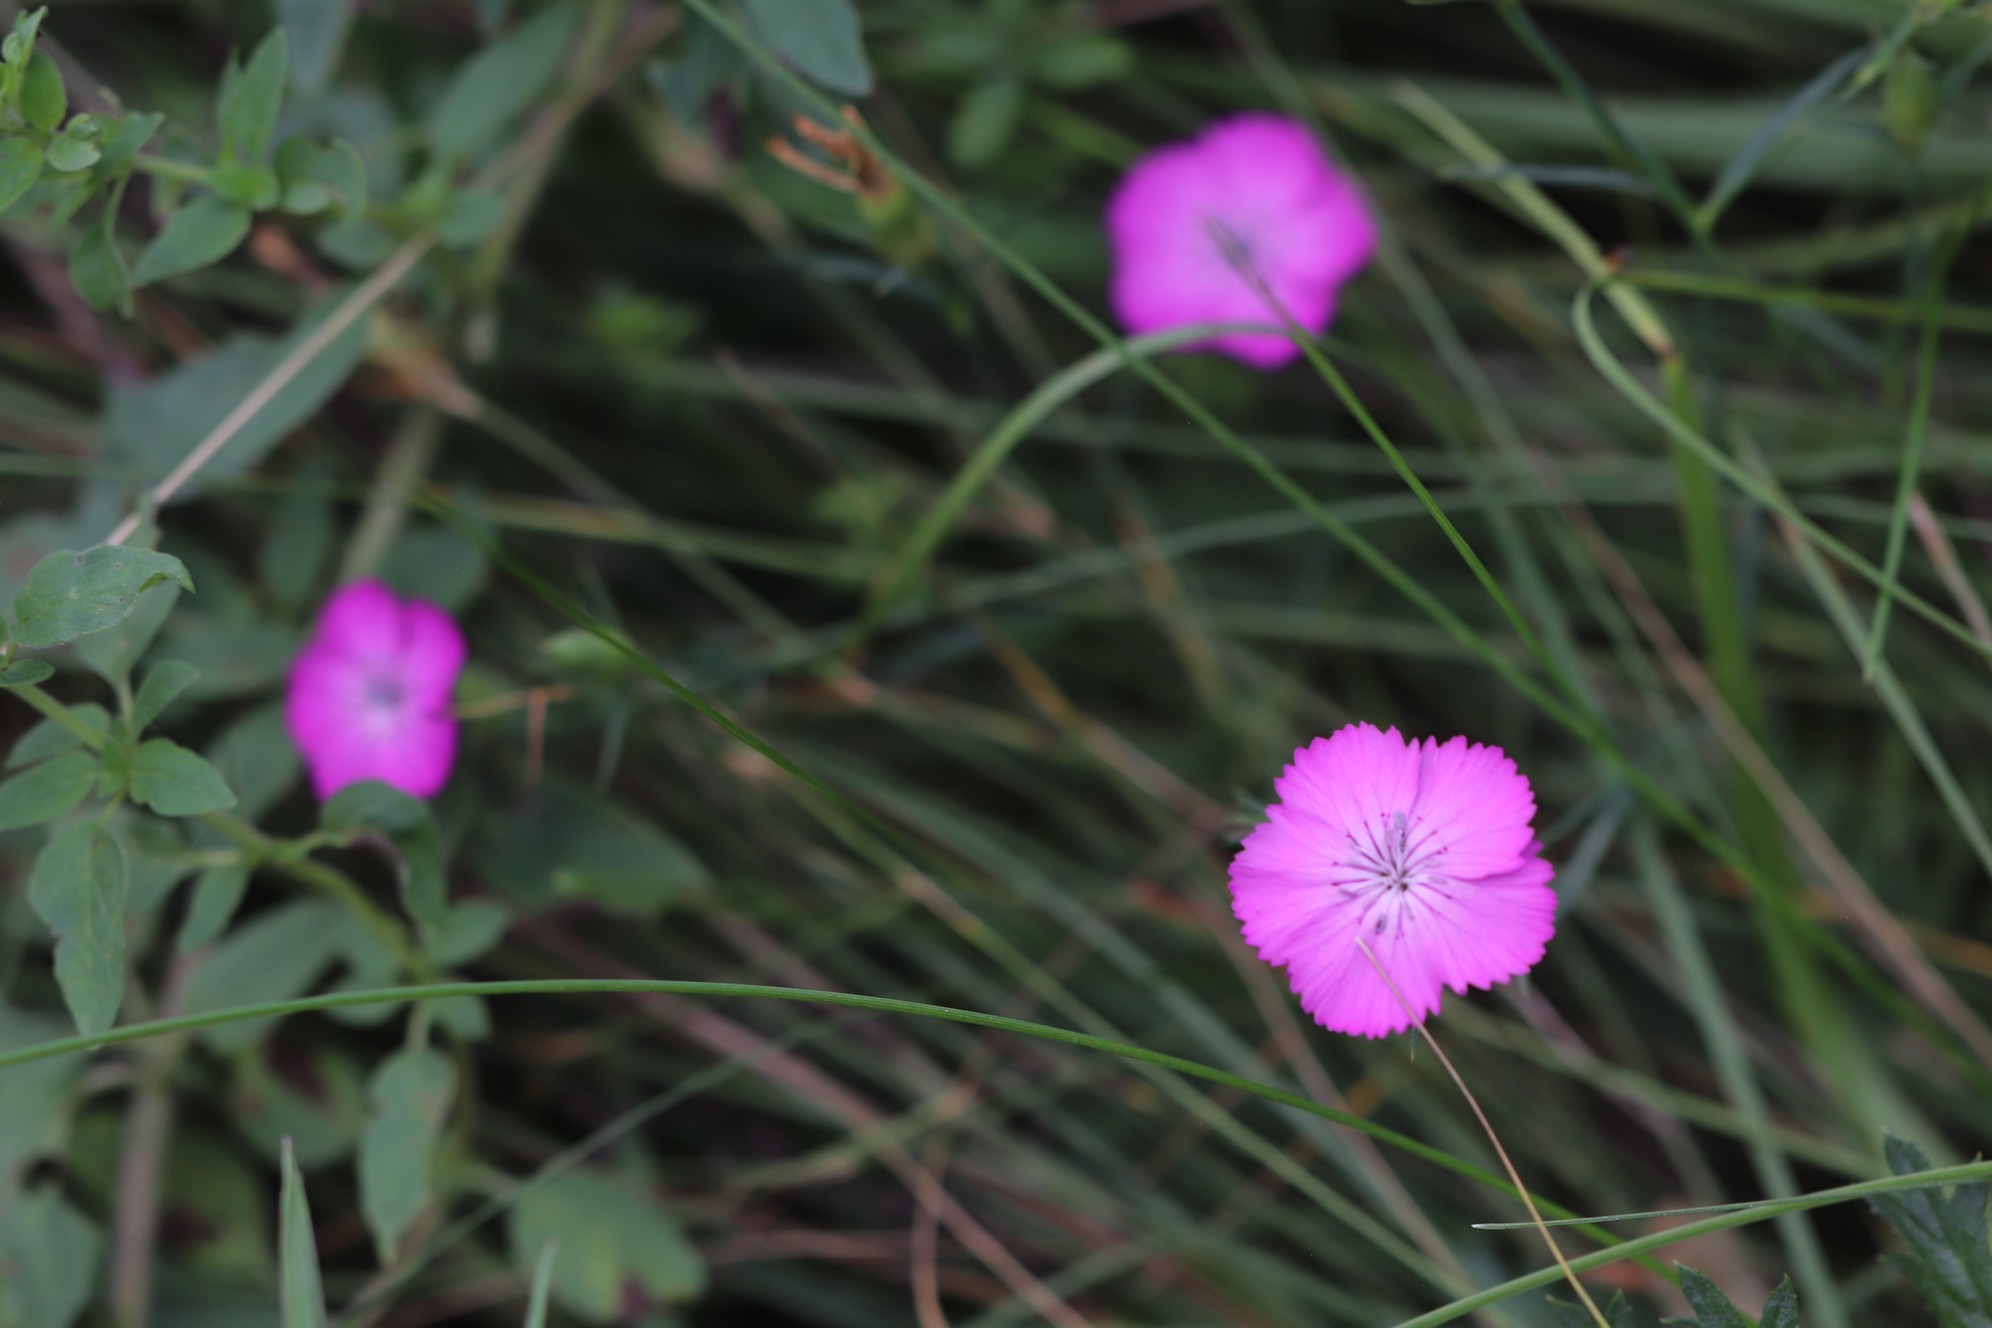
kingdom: Plantae
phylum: Tracheophyta
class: Magnoliopsida
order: Caryophyllales
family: Caryophyllaceae
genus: Dianthus
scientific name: Dianthus chinensis
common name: Rainbow pink
